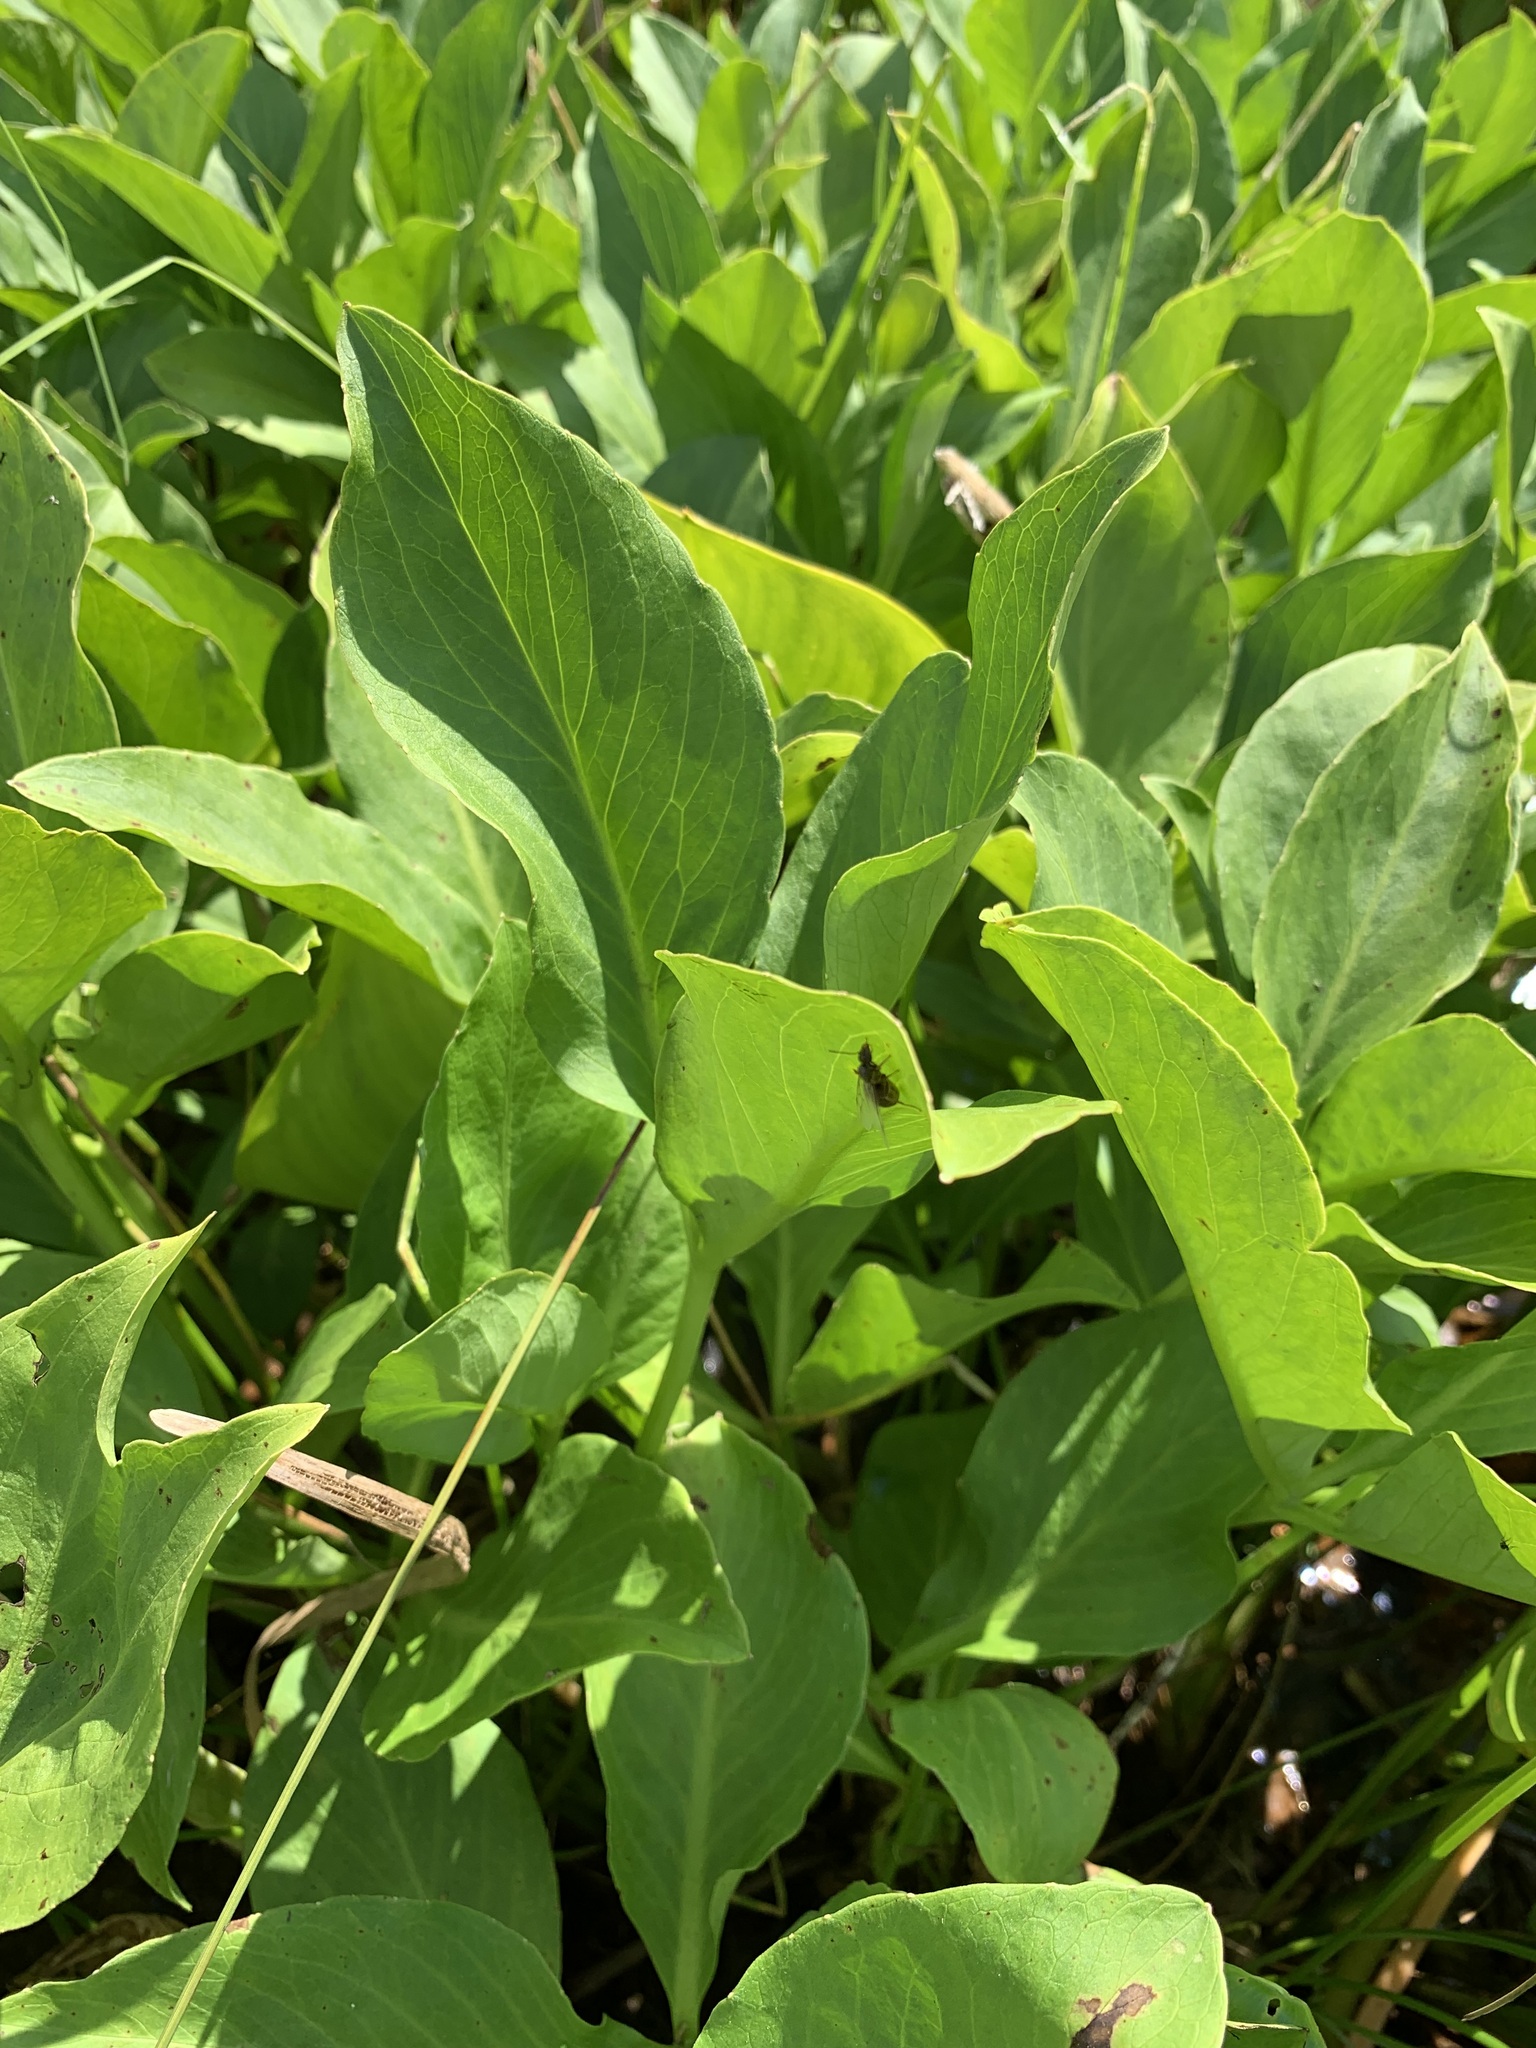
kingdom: Plantae
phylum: Tracheophyta
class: Magnoliopsida
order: Asterales
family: Menyanthaceae
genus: Menyanthes
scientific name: Menyanthes trifoliata
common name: Bogbean
